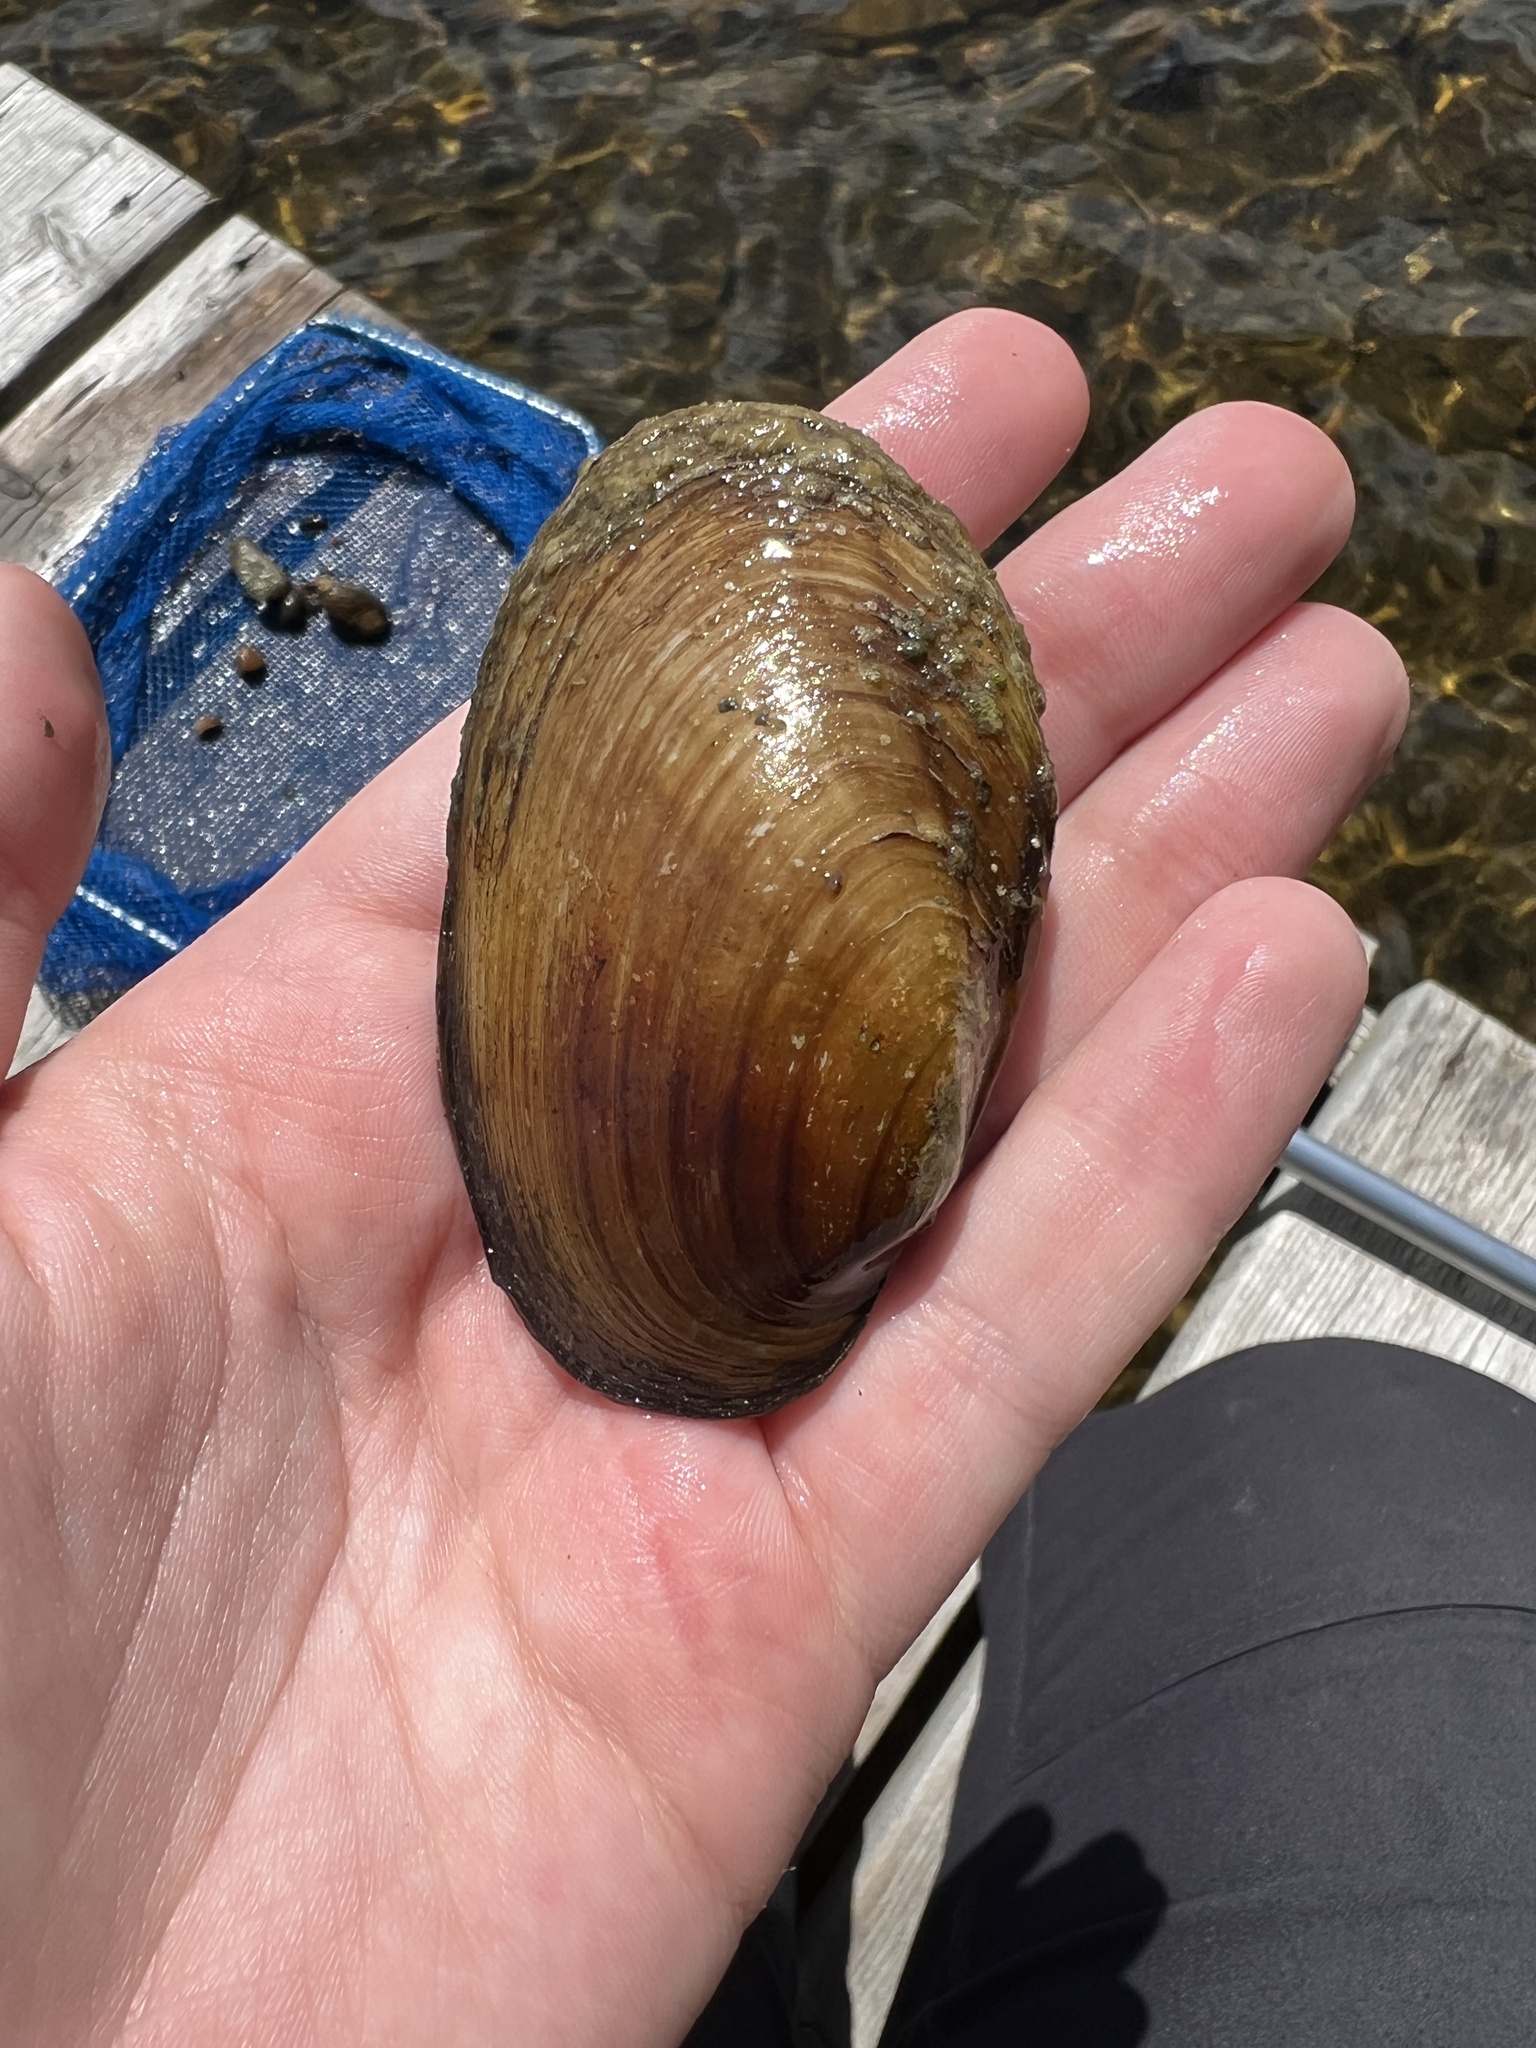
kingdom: Animalia
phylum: Mollusca
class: Bivalvia
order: Unionida
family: Unionidae
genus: Lampsilis
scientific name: Lampsilis siliquoidea
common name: Fatmucket
